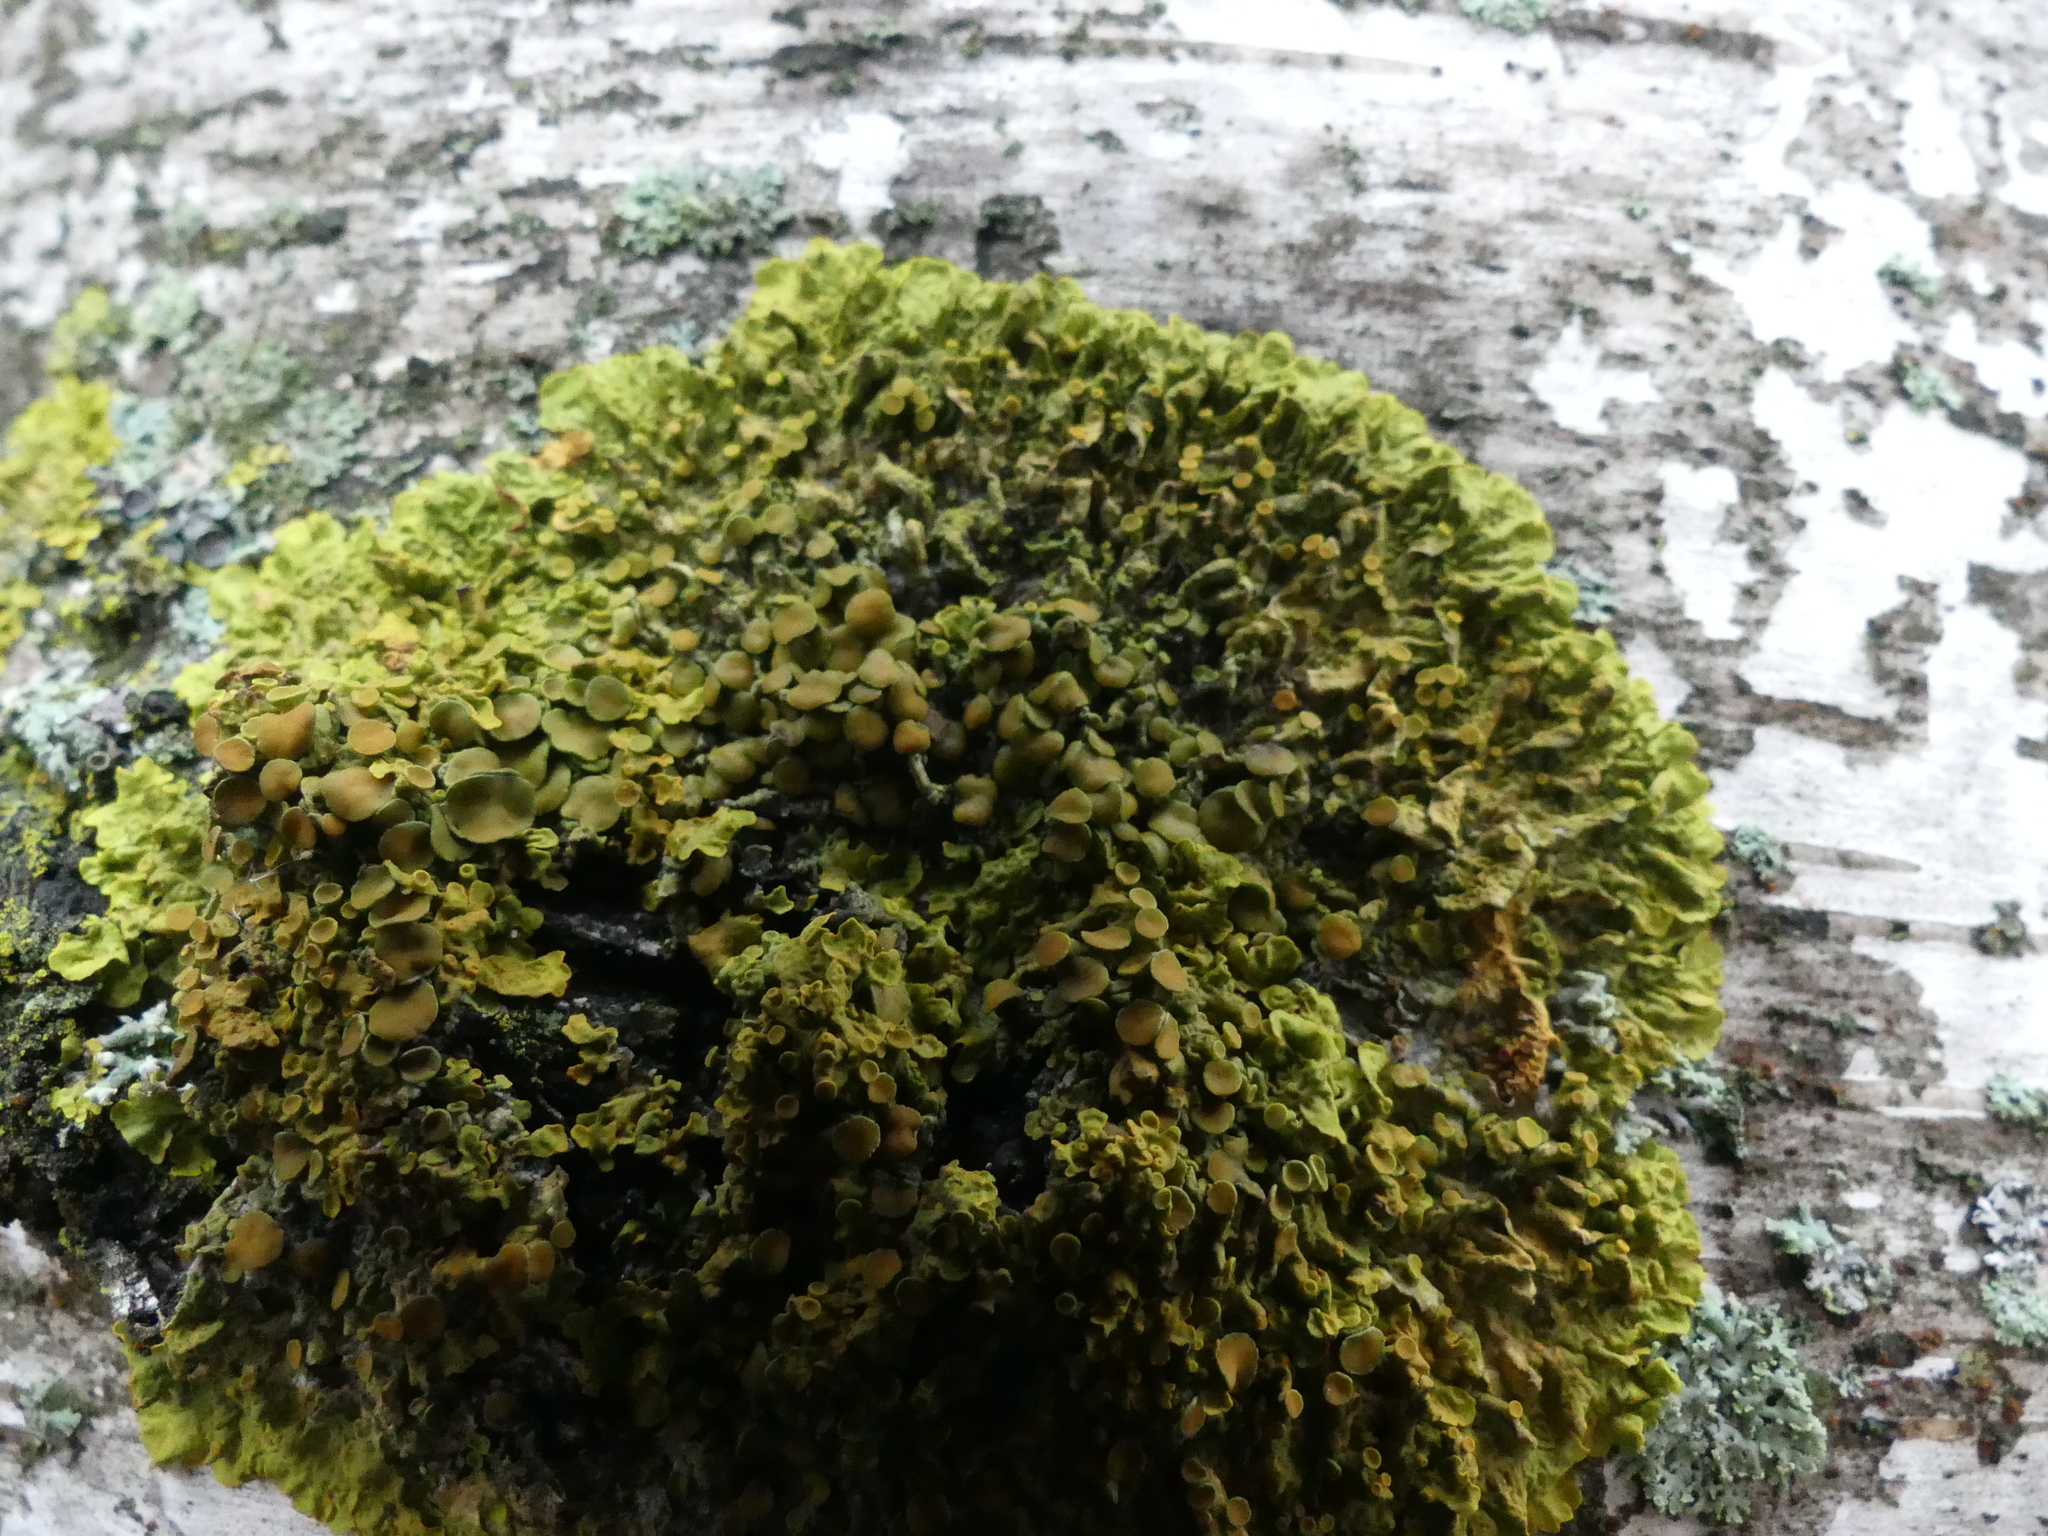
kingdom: Fungi
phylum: Ascomycota
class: Lecanoromycetes
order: Teloschistales
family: Teloschistaceae
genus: Xanthoria
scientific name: Xanthoria parietina
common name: Common orange lichen
